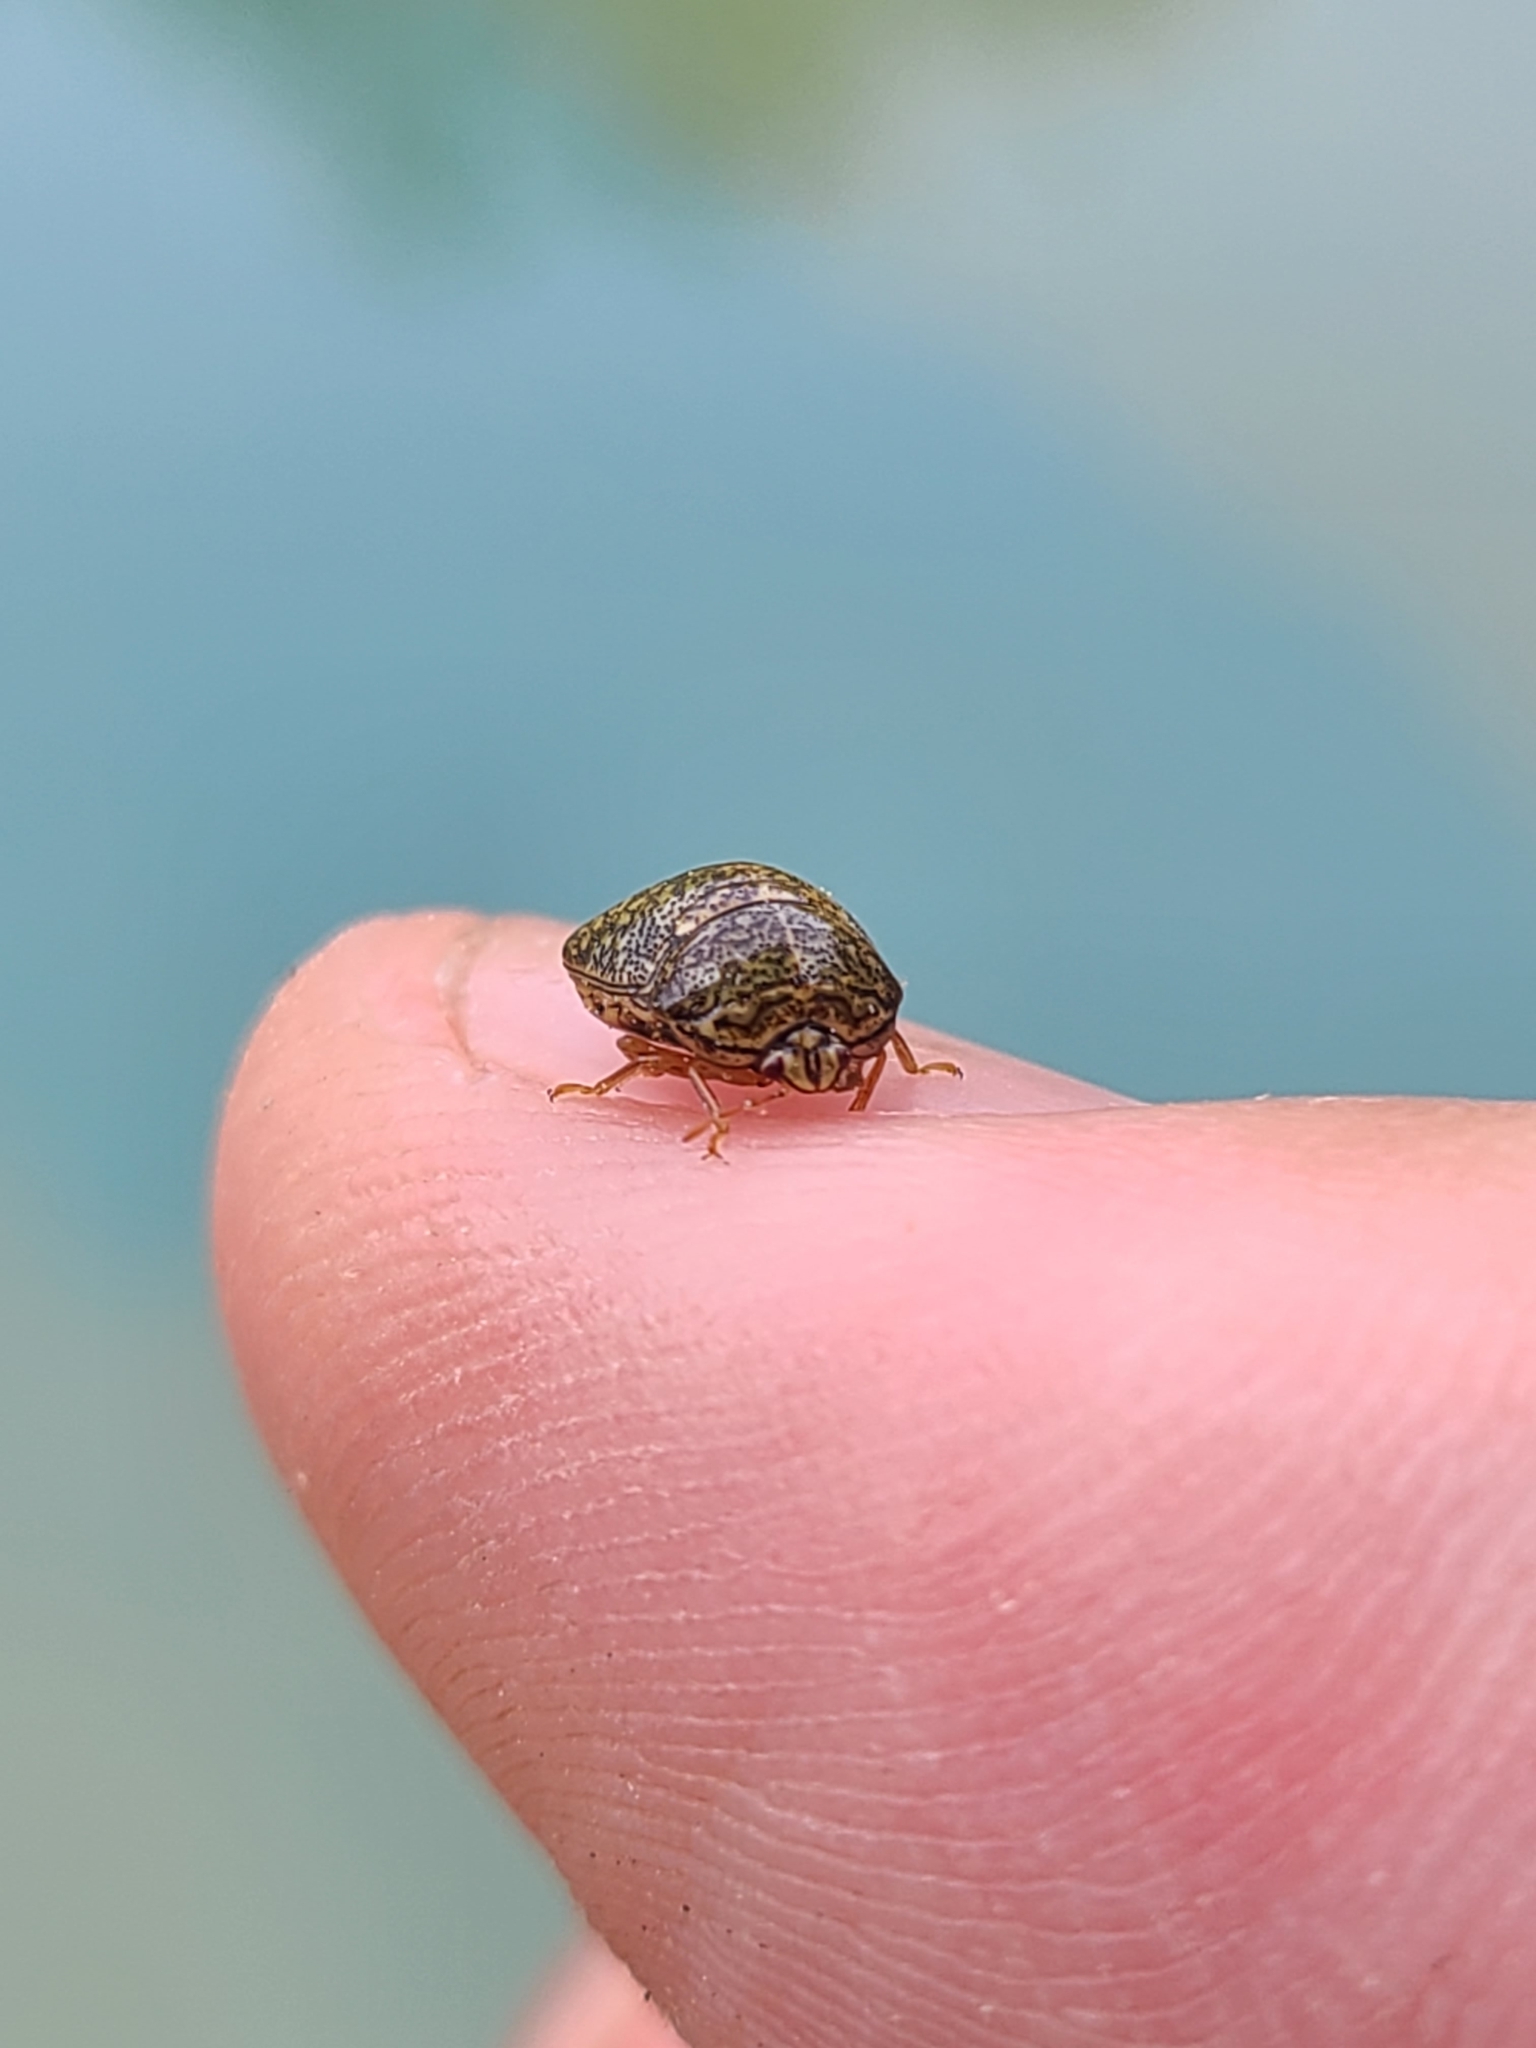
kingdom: Animalia
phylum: Arthropoda
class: Insecta
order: Hemiptera
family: Plataspidae
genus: Megacopta
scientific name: Megacopta cribraria
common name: Bean plataspid
